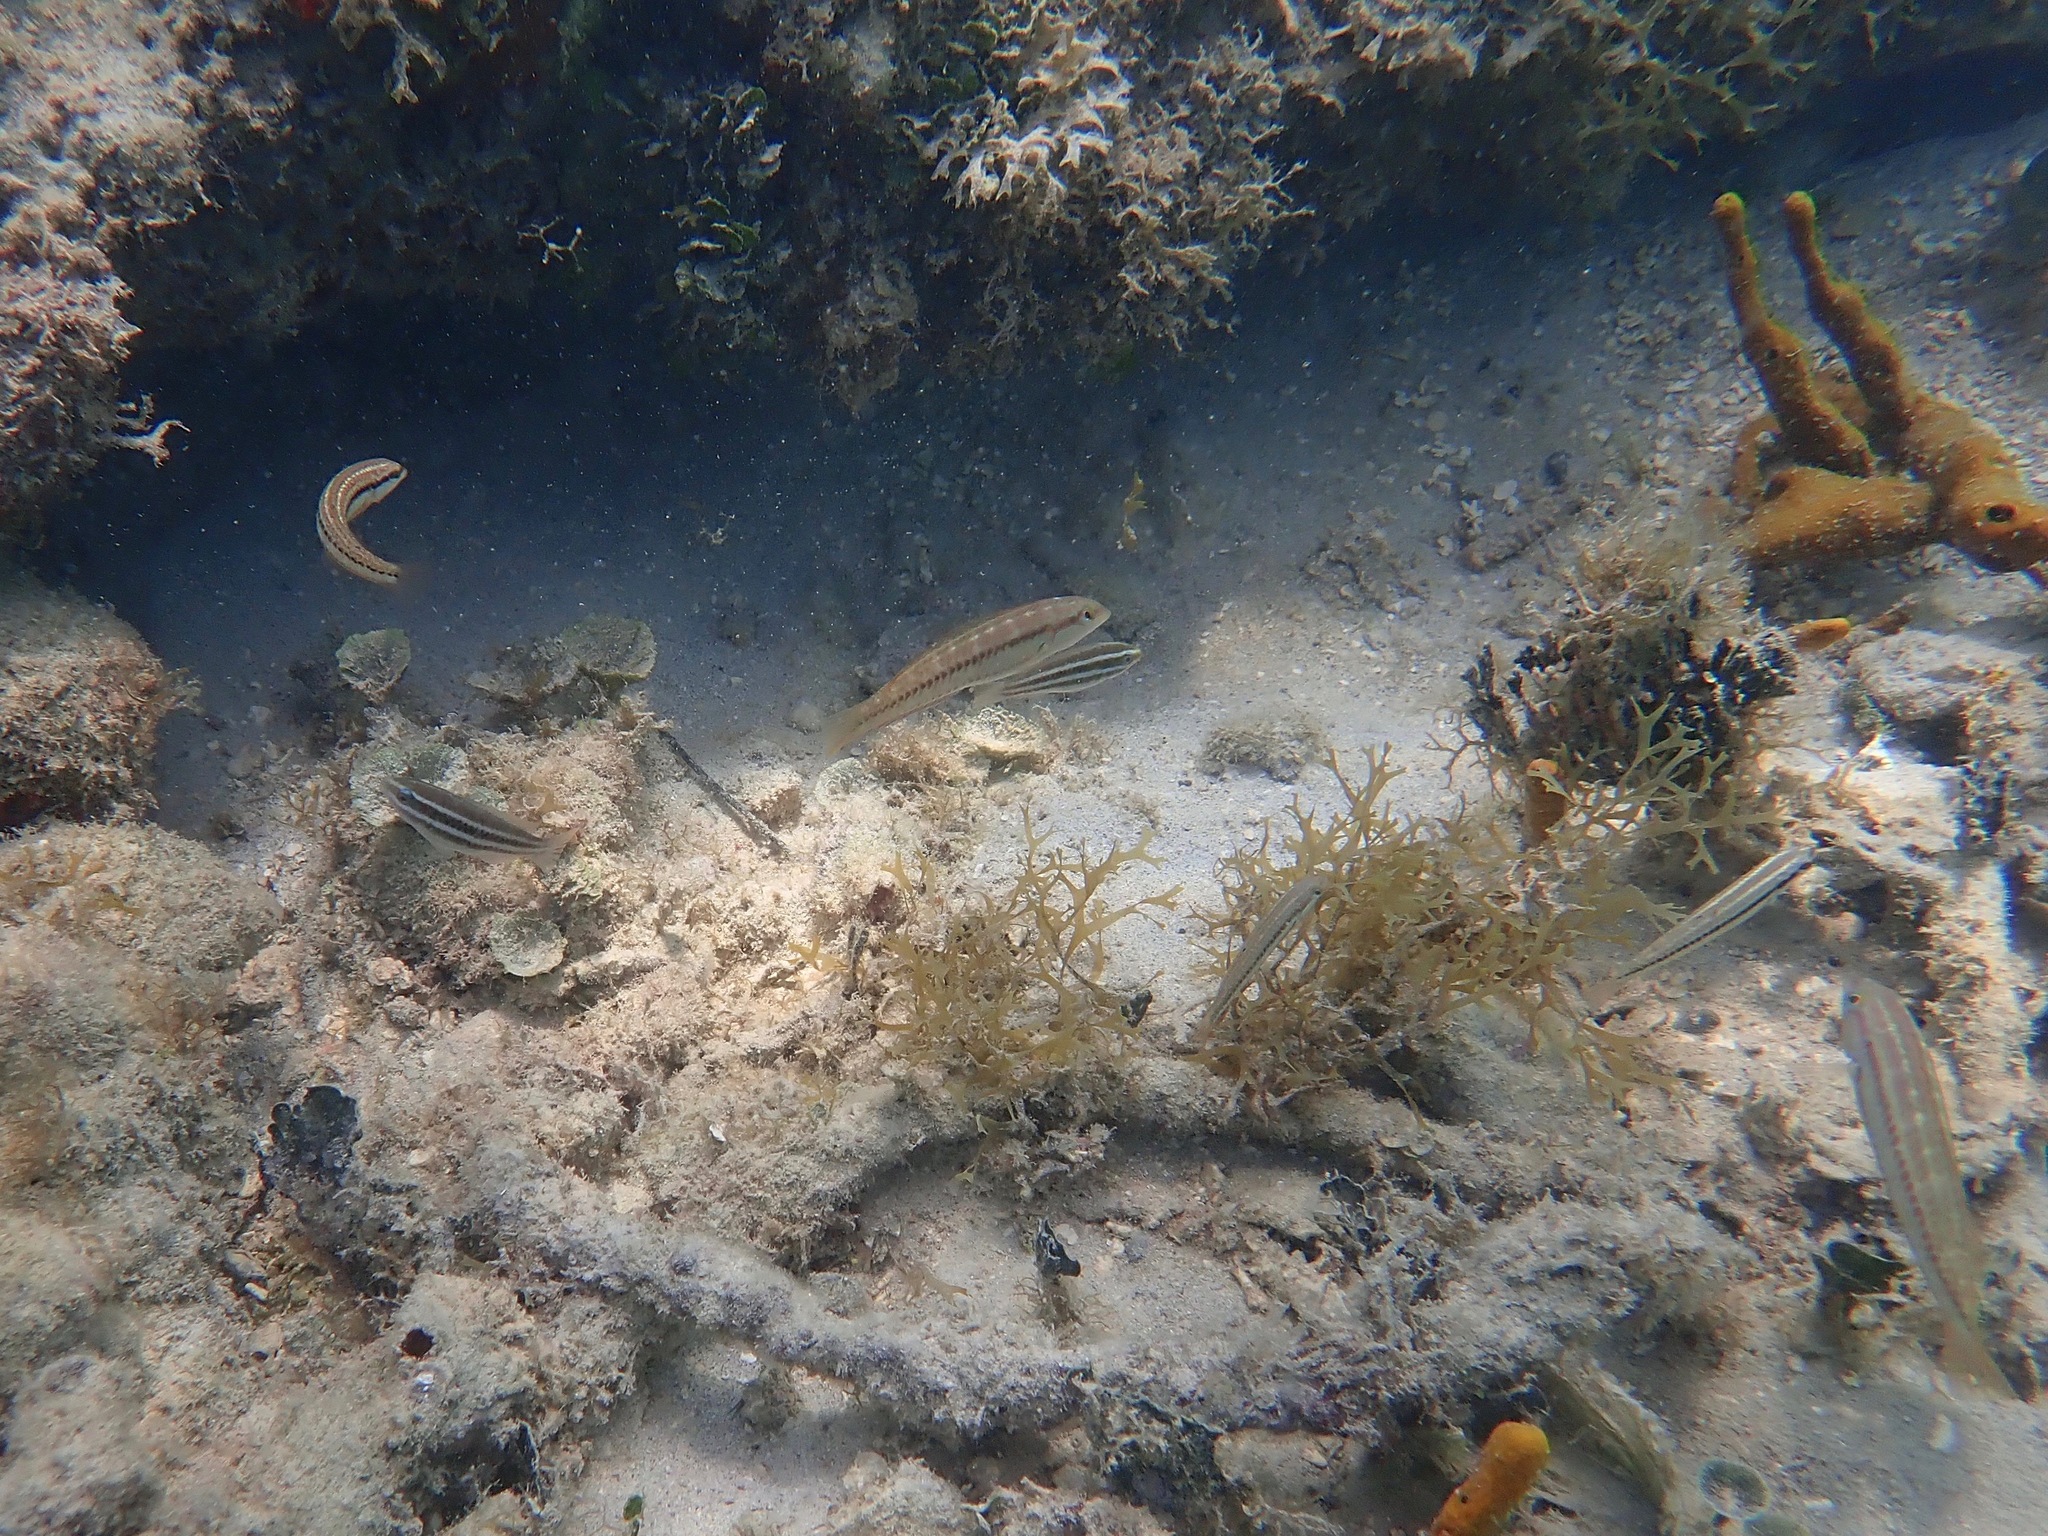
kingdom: Animalia
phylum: Chordata
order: Perciformes
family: Labridae
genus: Halichoeres
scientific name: Halichoeres bivittatus
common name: Slippery dick
